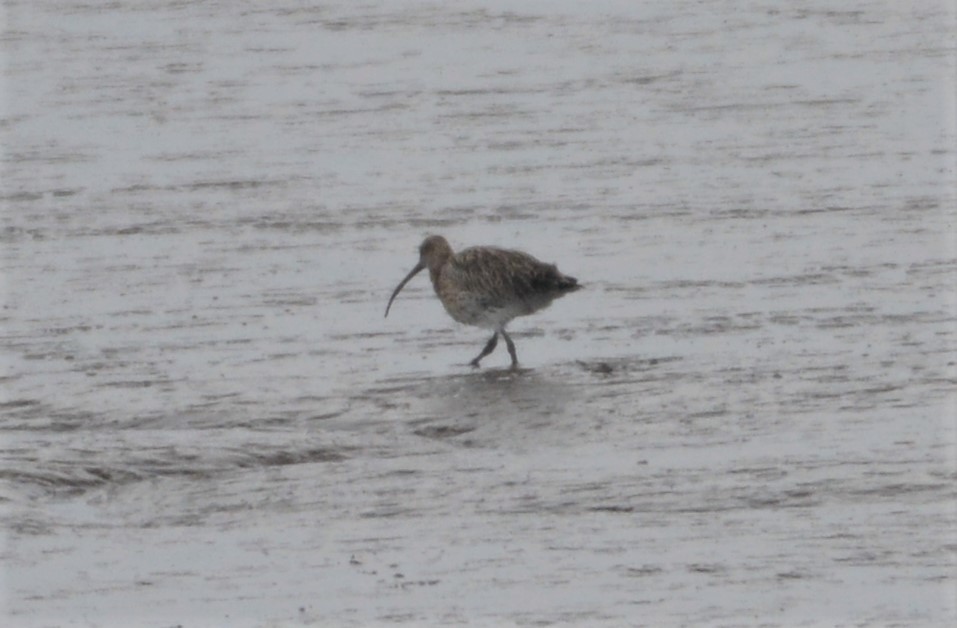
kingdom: Animalia
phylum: Chordata
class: Aves
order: Charadriiformes
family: Scolopacidae
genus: Numenius
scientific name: Numenius arquata
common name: Eurasian curlew
